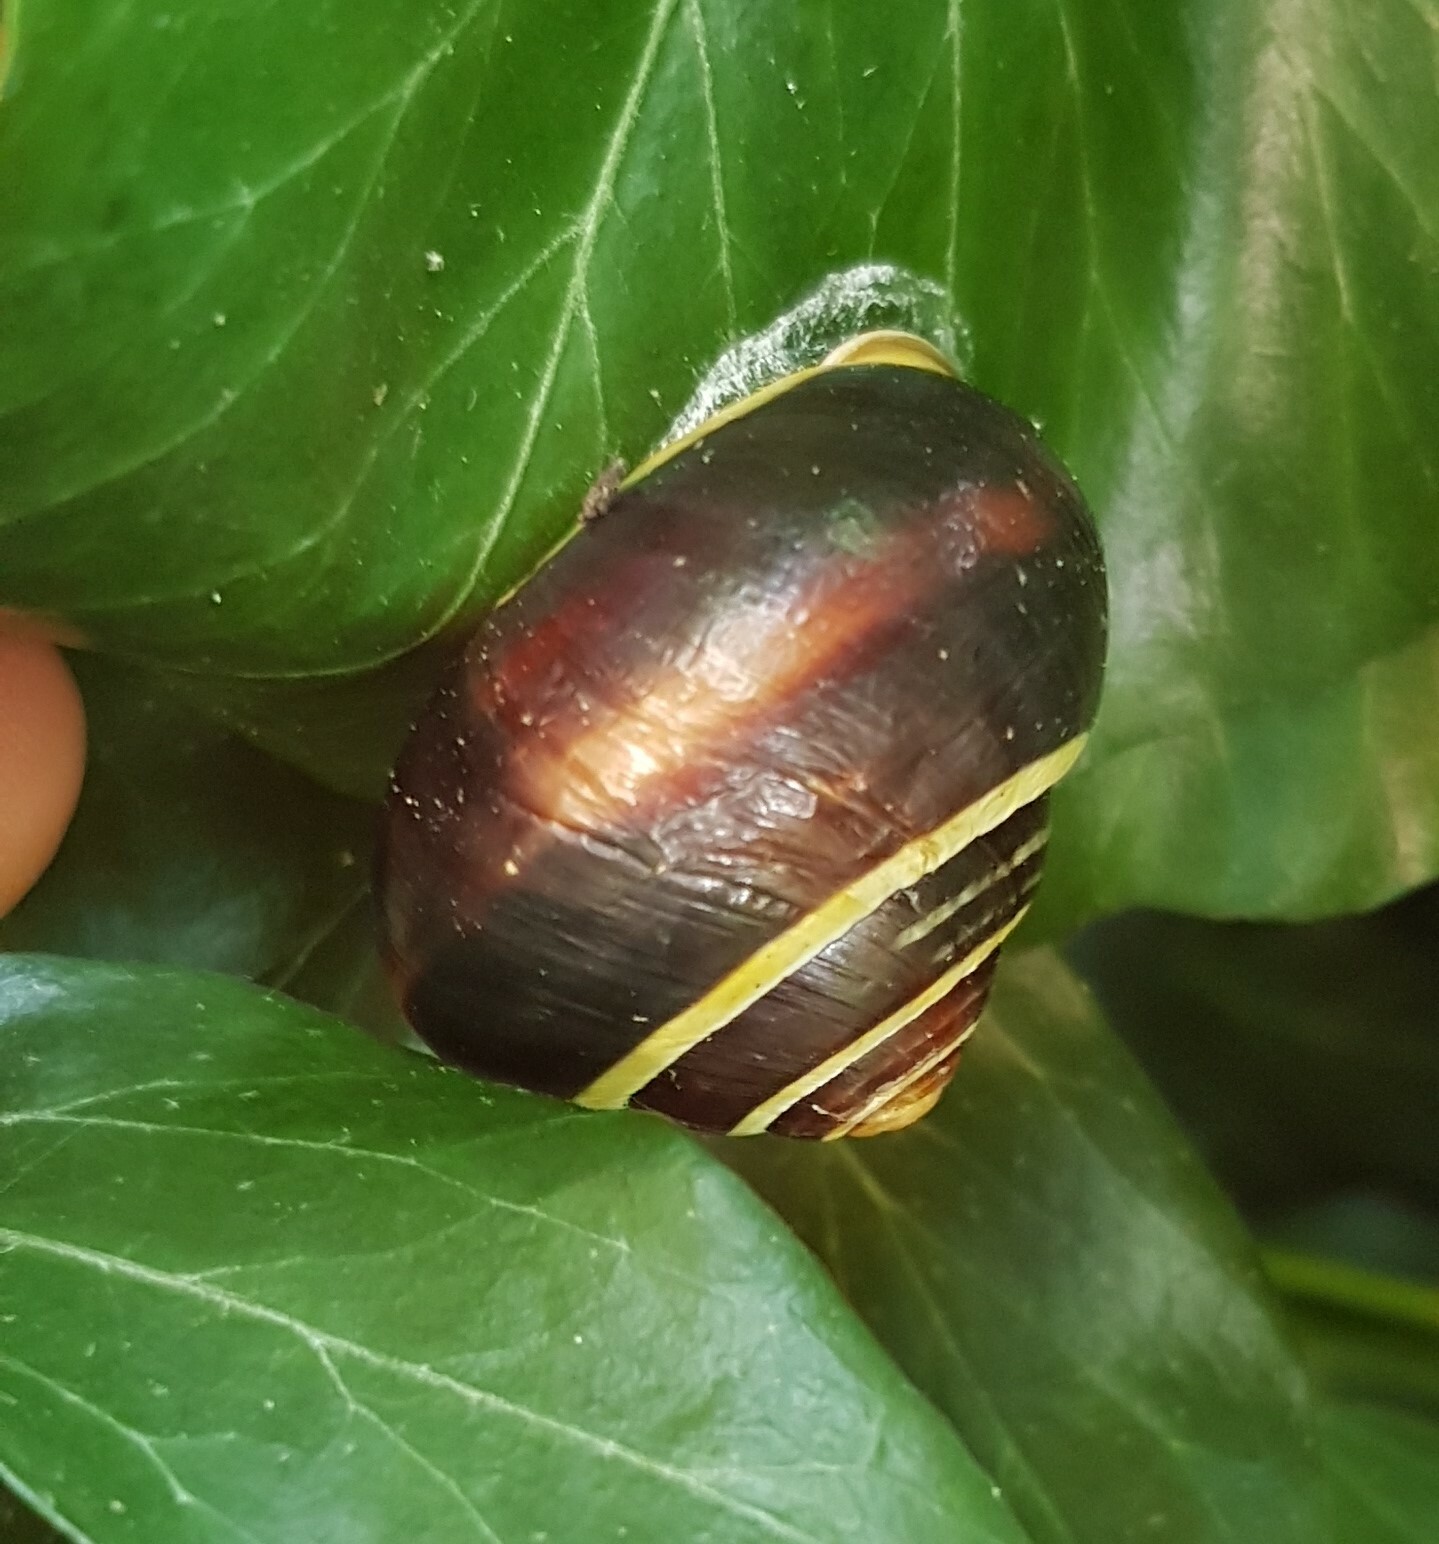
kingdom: Animalia
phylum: Mollusca
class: Gastropoda
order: Stylommatophora
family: Helicidae
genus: Cepaea
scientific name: Cepaea nemoralis
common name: Grovesnail
